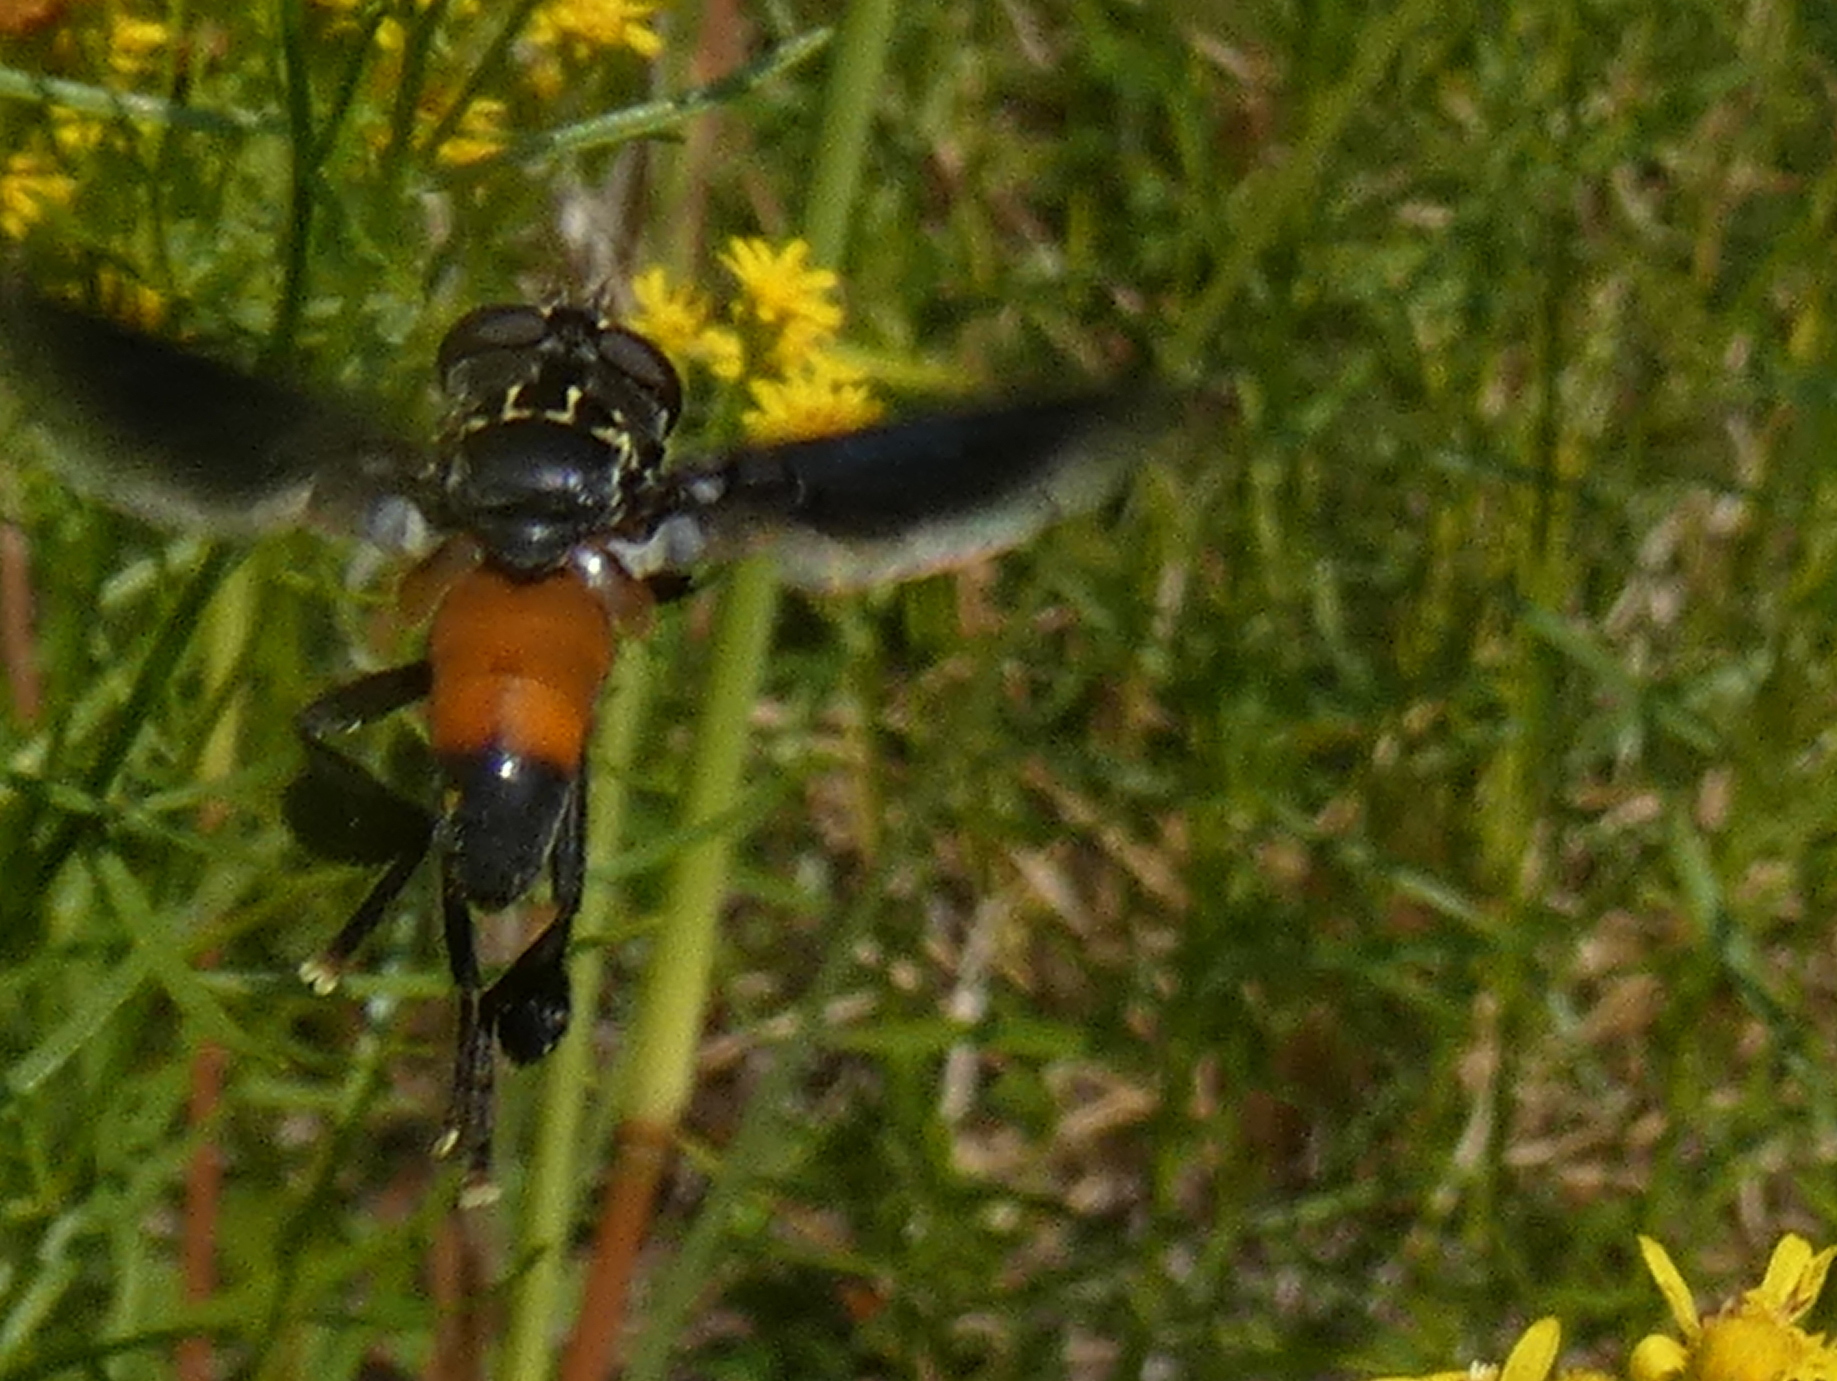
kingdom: Animalia
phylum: Arthropoda
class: Insecta
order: Diptera
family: Tachinidae
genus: Trichopoda
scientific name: Trichopoda pennipes
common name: Tachinid fly
